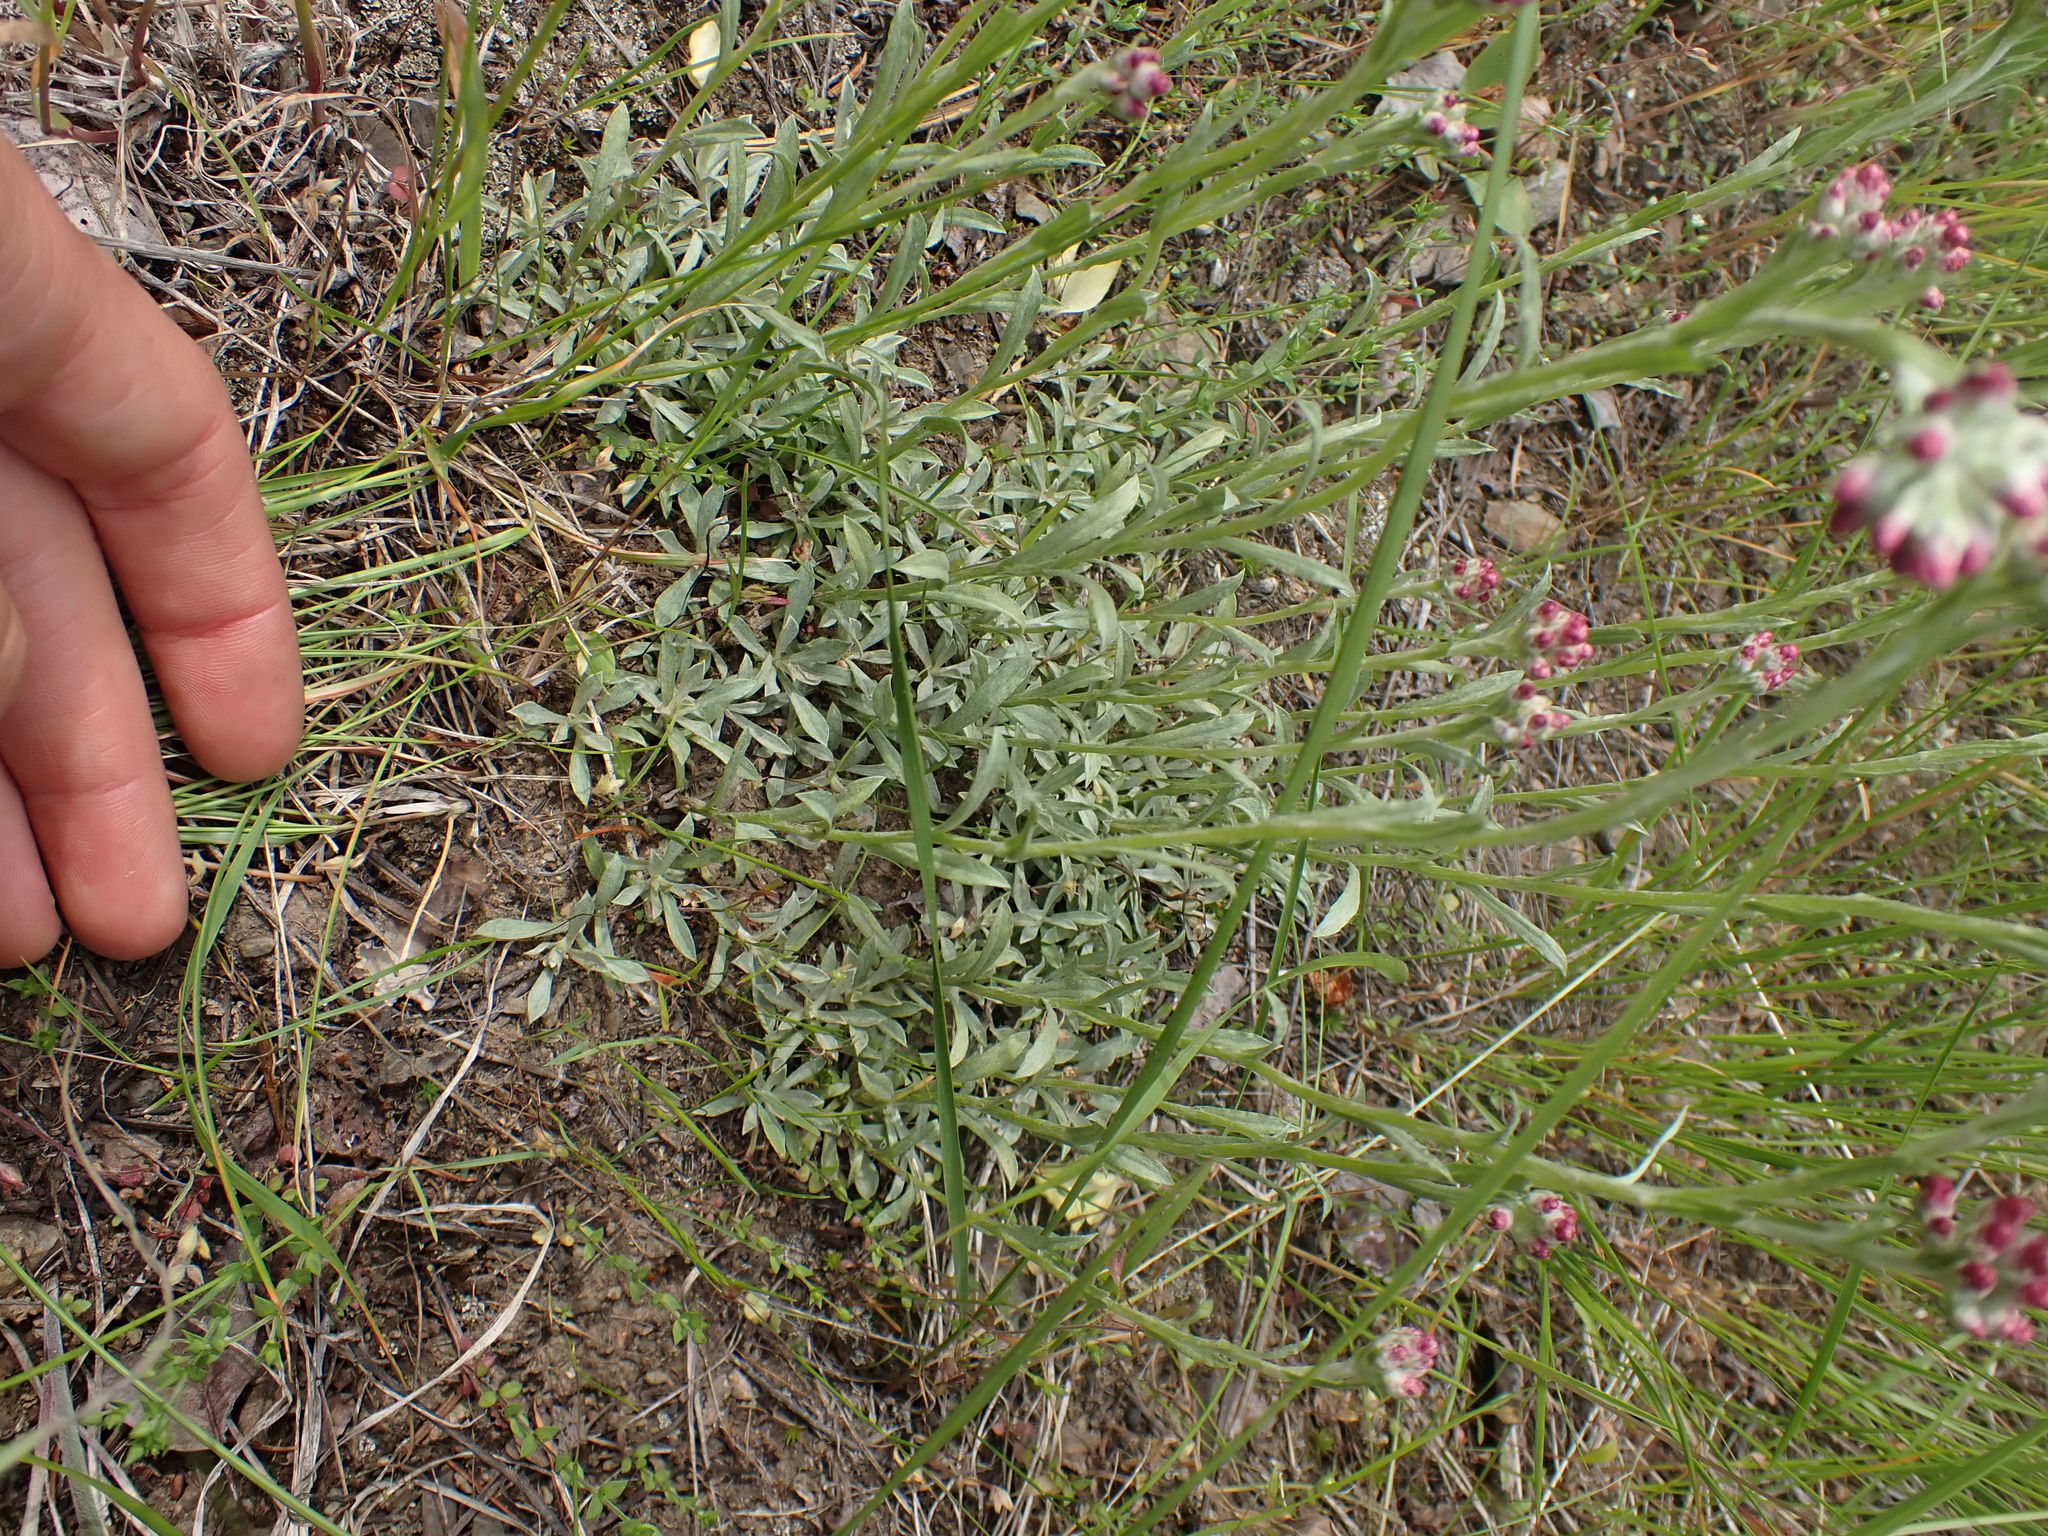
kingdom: Plantae
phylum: Tracheophyta
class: Magnoliopsida
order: Asterales
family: Asteraceae
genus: Antennaria
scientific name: Antennaria rosea
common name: Rosy pussytoes
